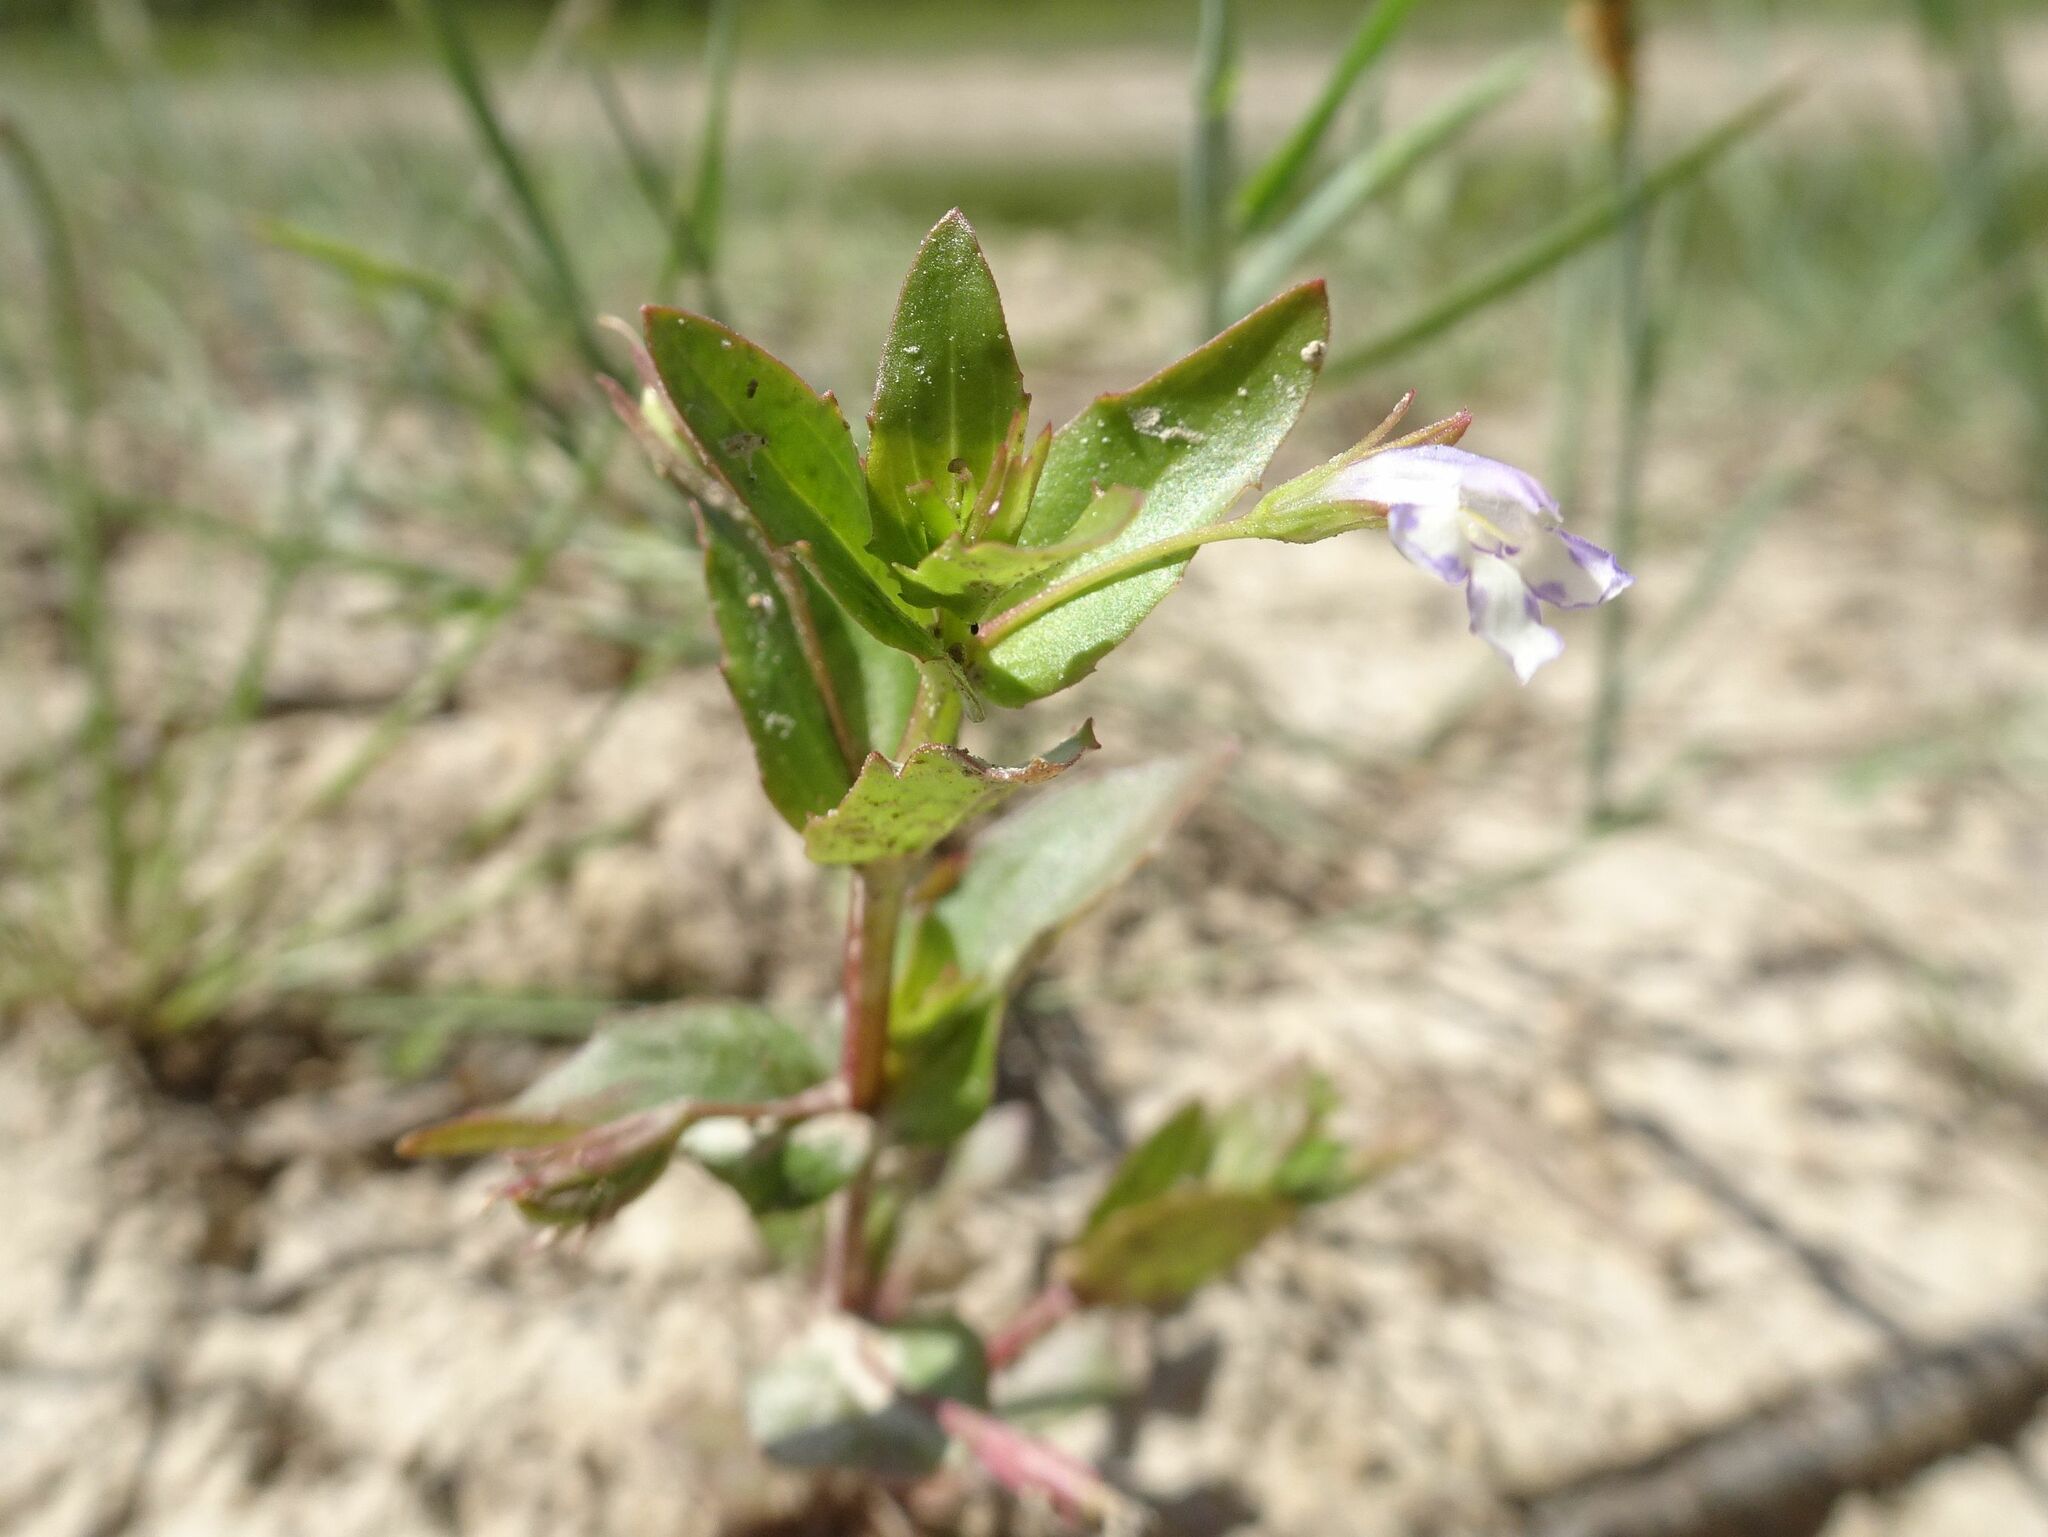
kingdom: Plantae
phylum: Tracheophyta
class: Magnoliopsida
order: Lamiales
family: Linderniaceae
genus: Lindernia
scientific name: Lindernia dubia
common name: Annual false pimpernel
